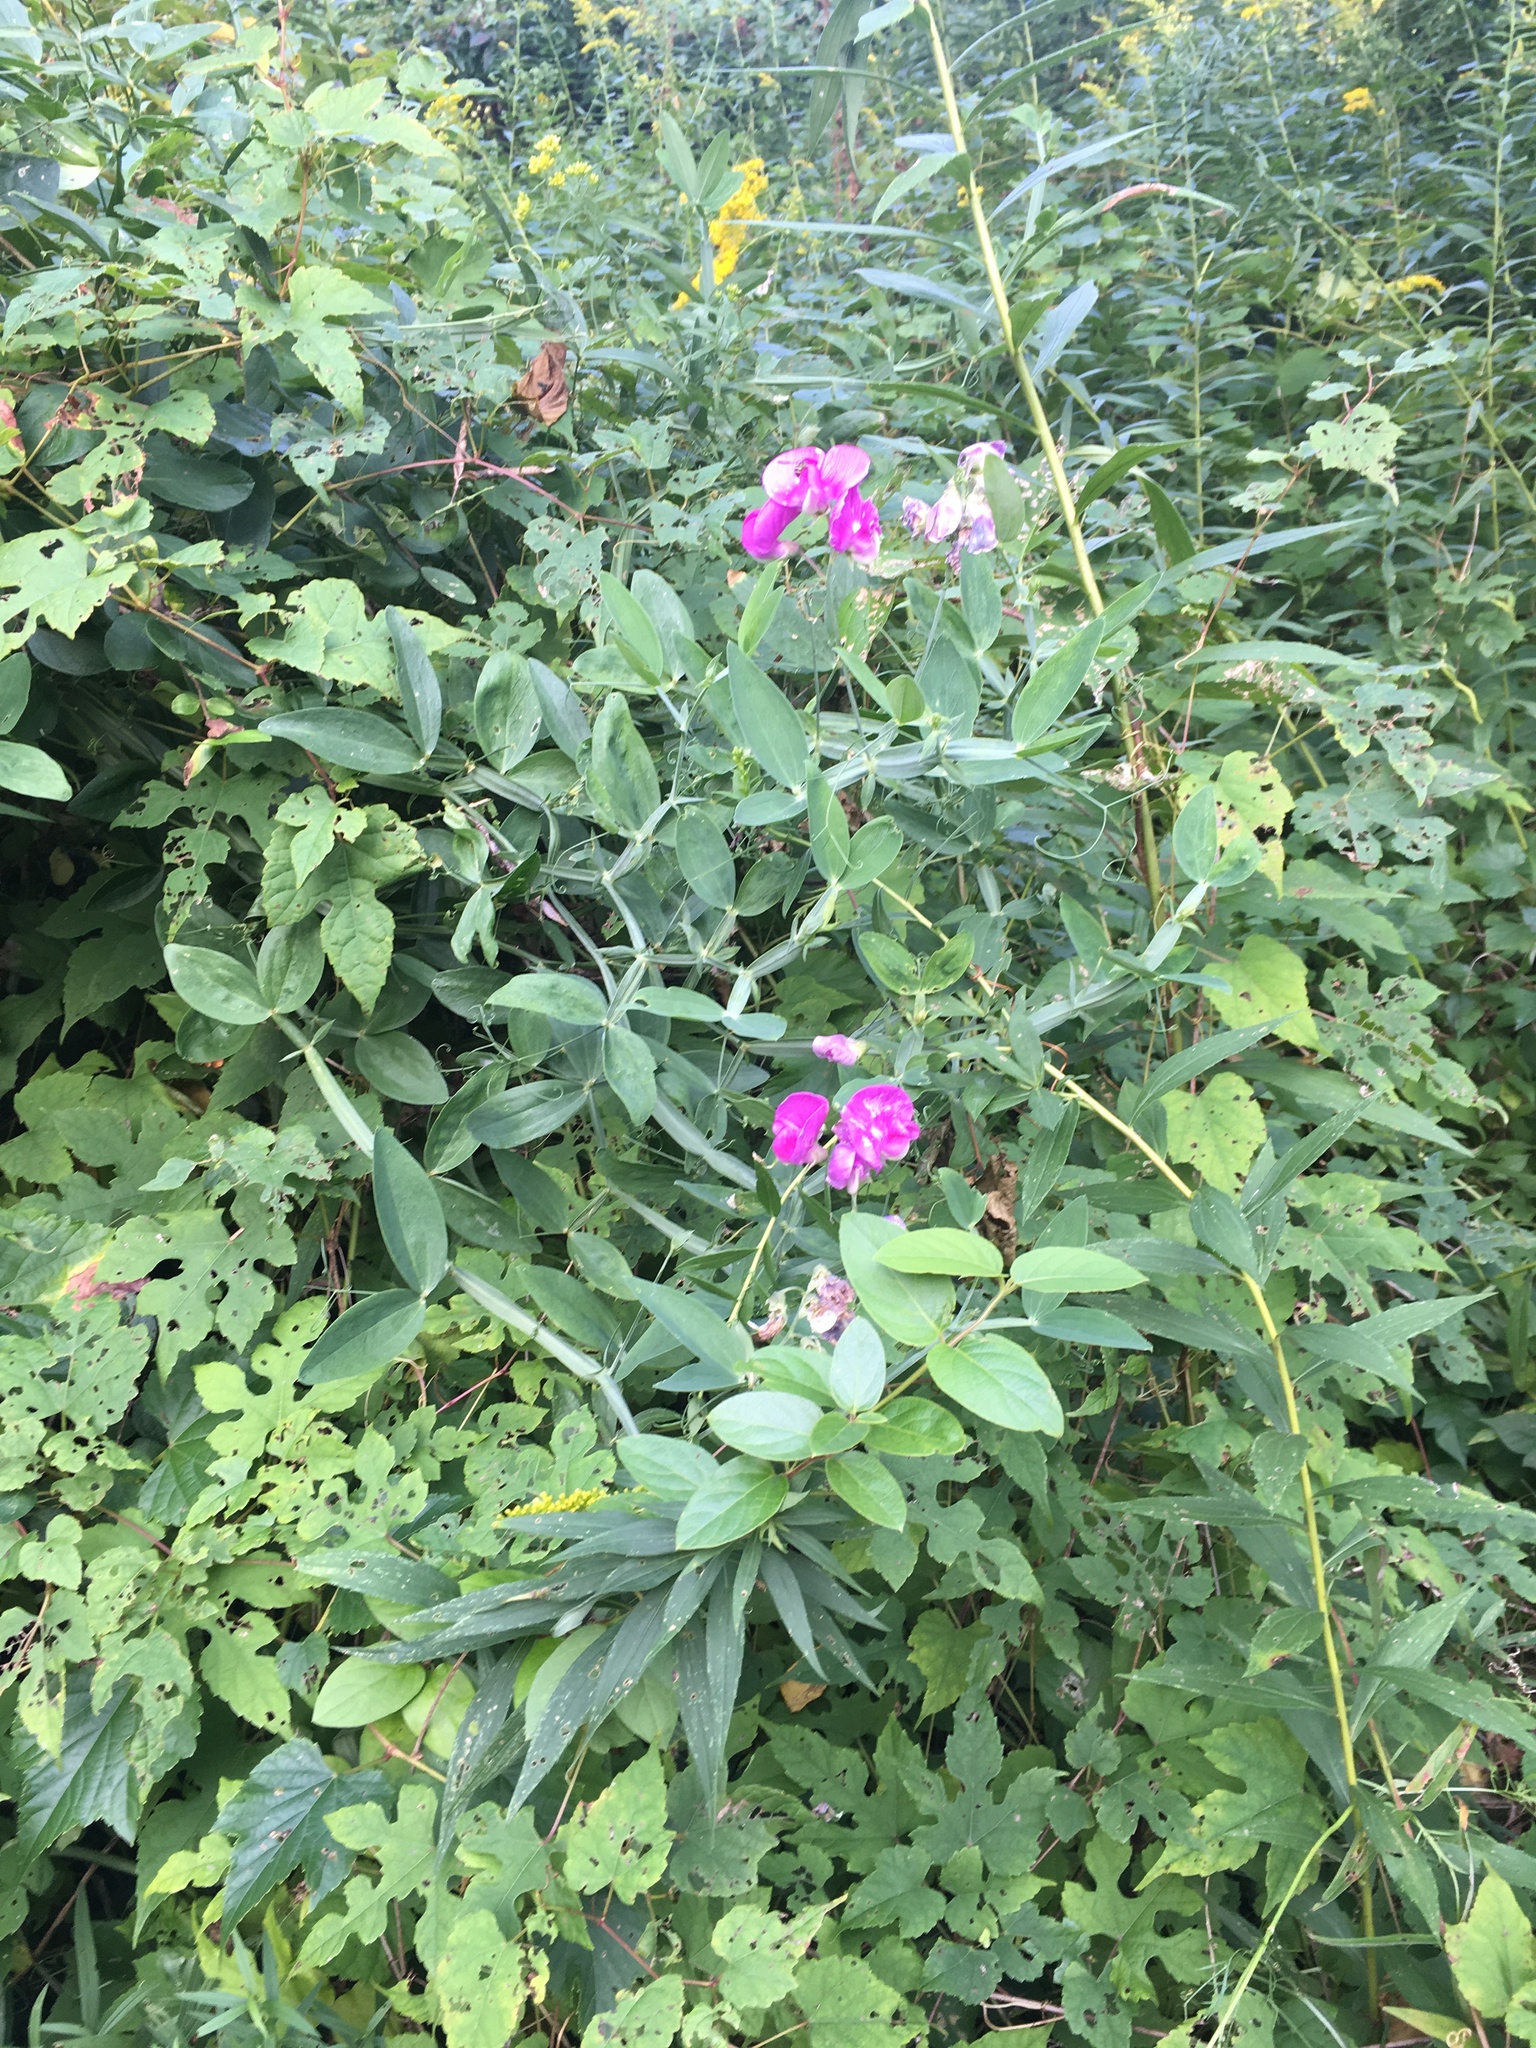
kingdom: Plantae
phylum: Tracheophyta
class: Magnoliopsida
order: Fabales
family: Fabaceae
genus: Lathyrus
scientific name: Lathyrus latifolius
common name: Perennial pea
